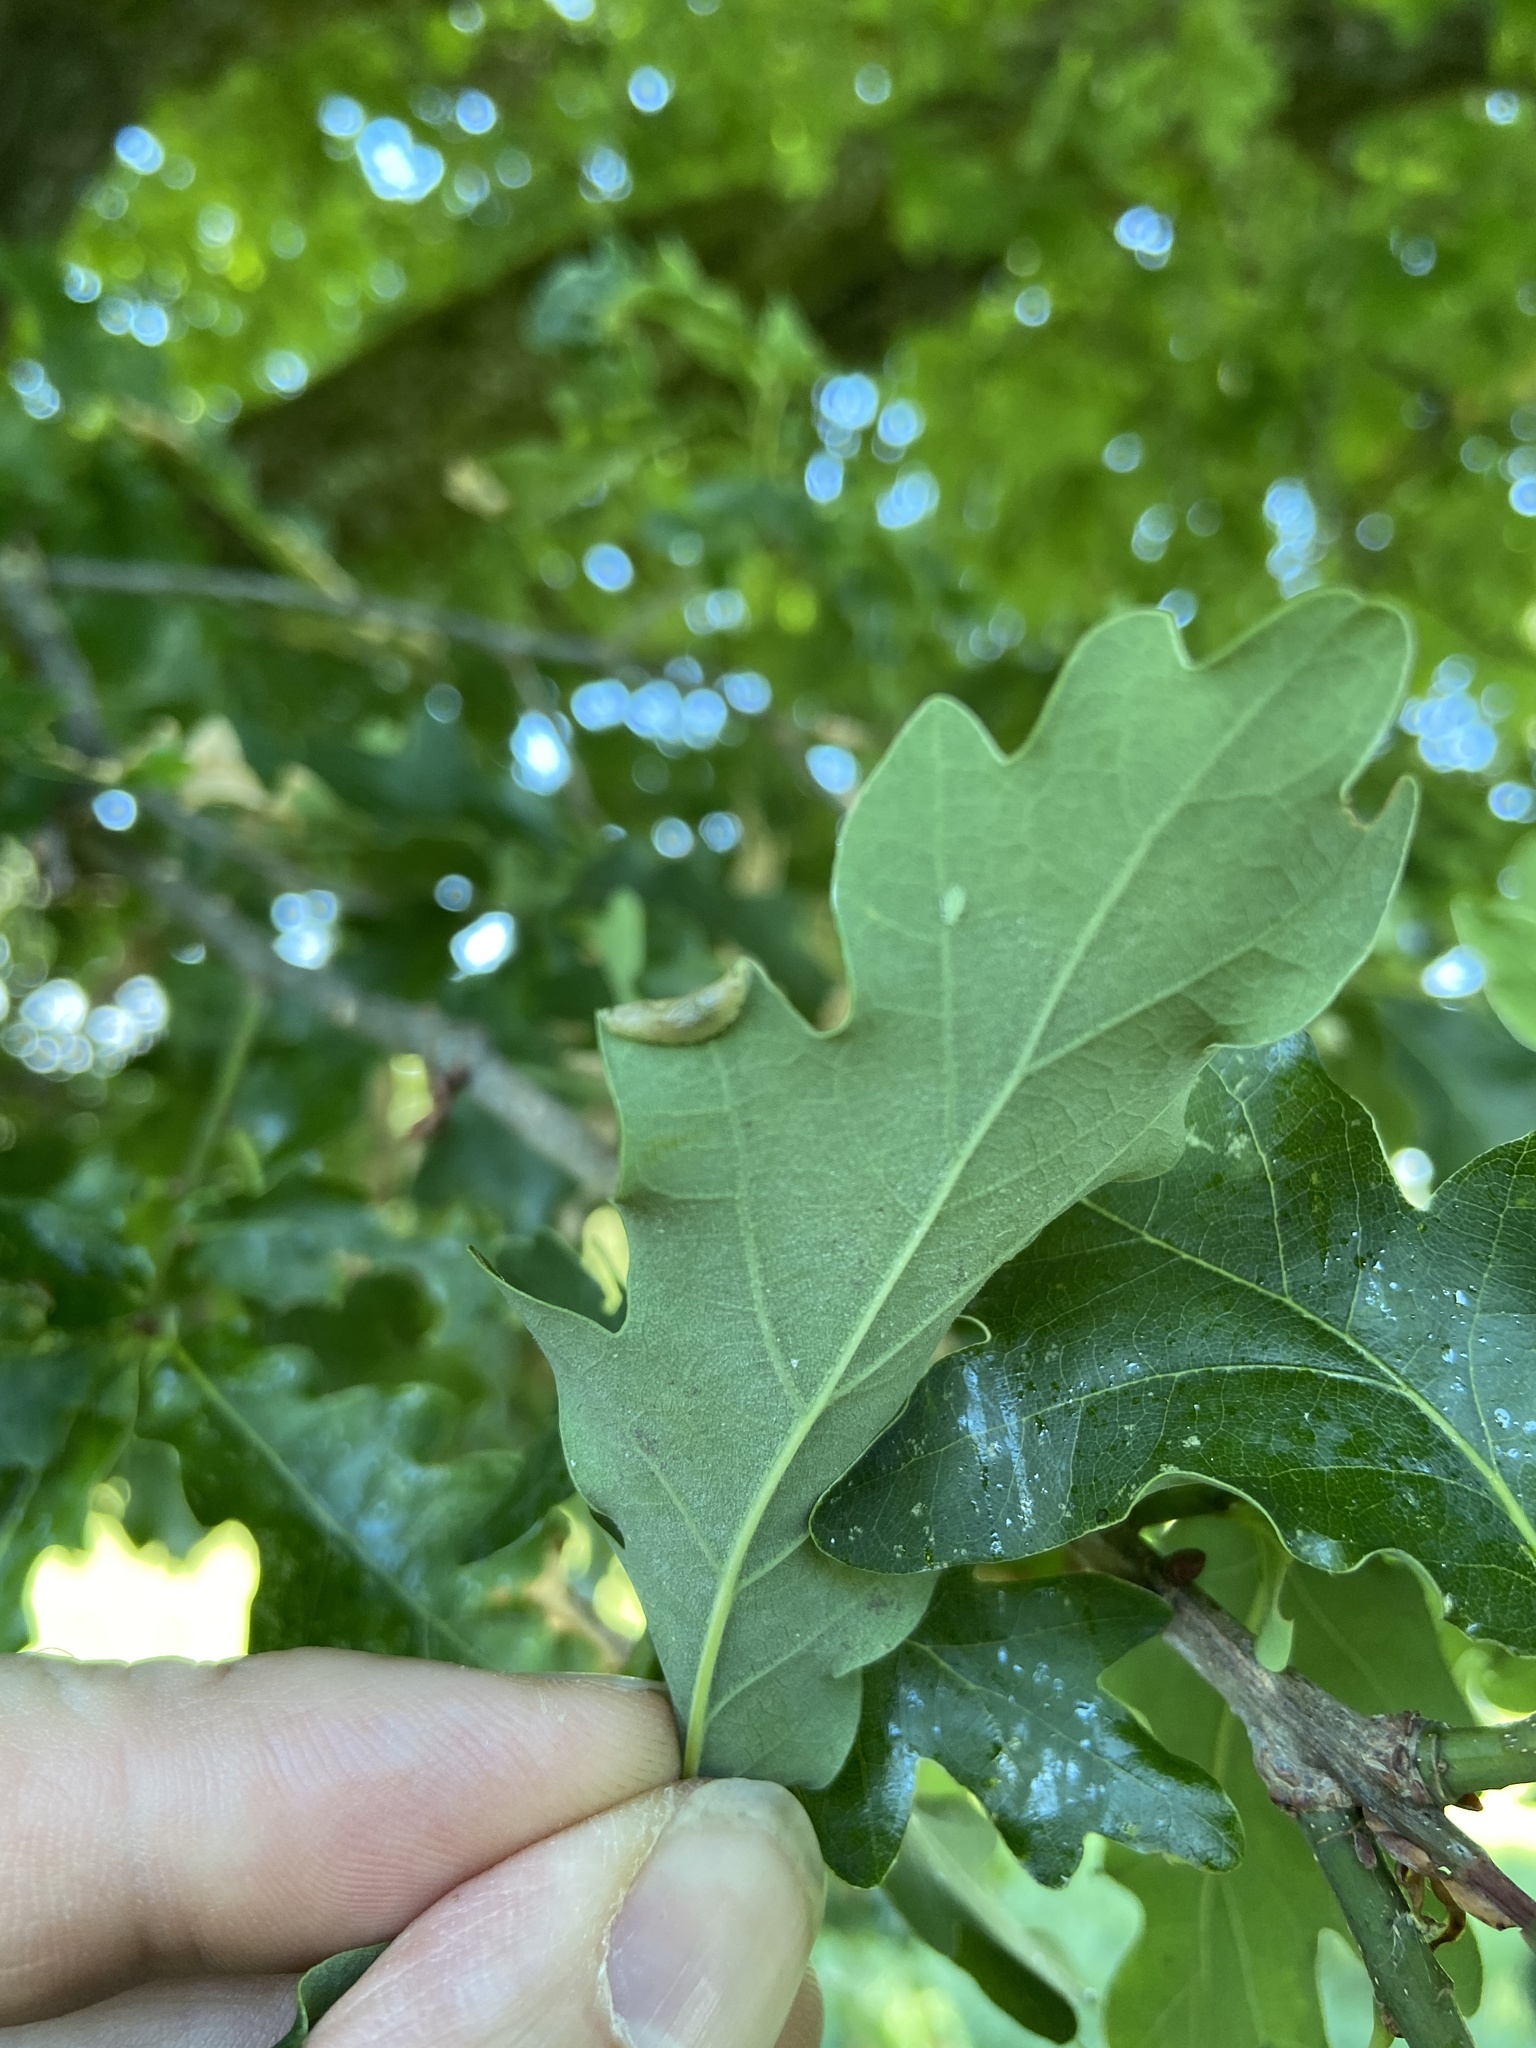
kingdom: Animalia
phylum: Arthropoda
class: Insecta
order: Diptera
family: Cecidomyiidae
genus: Macrodiplosis
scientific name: Macrodiplosis pustularis
